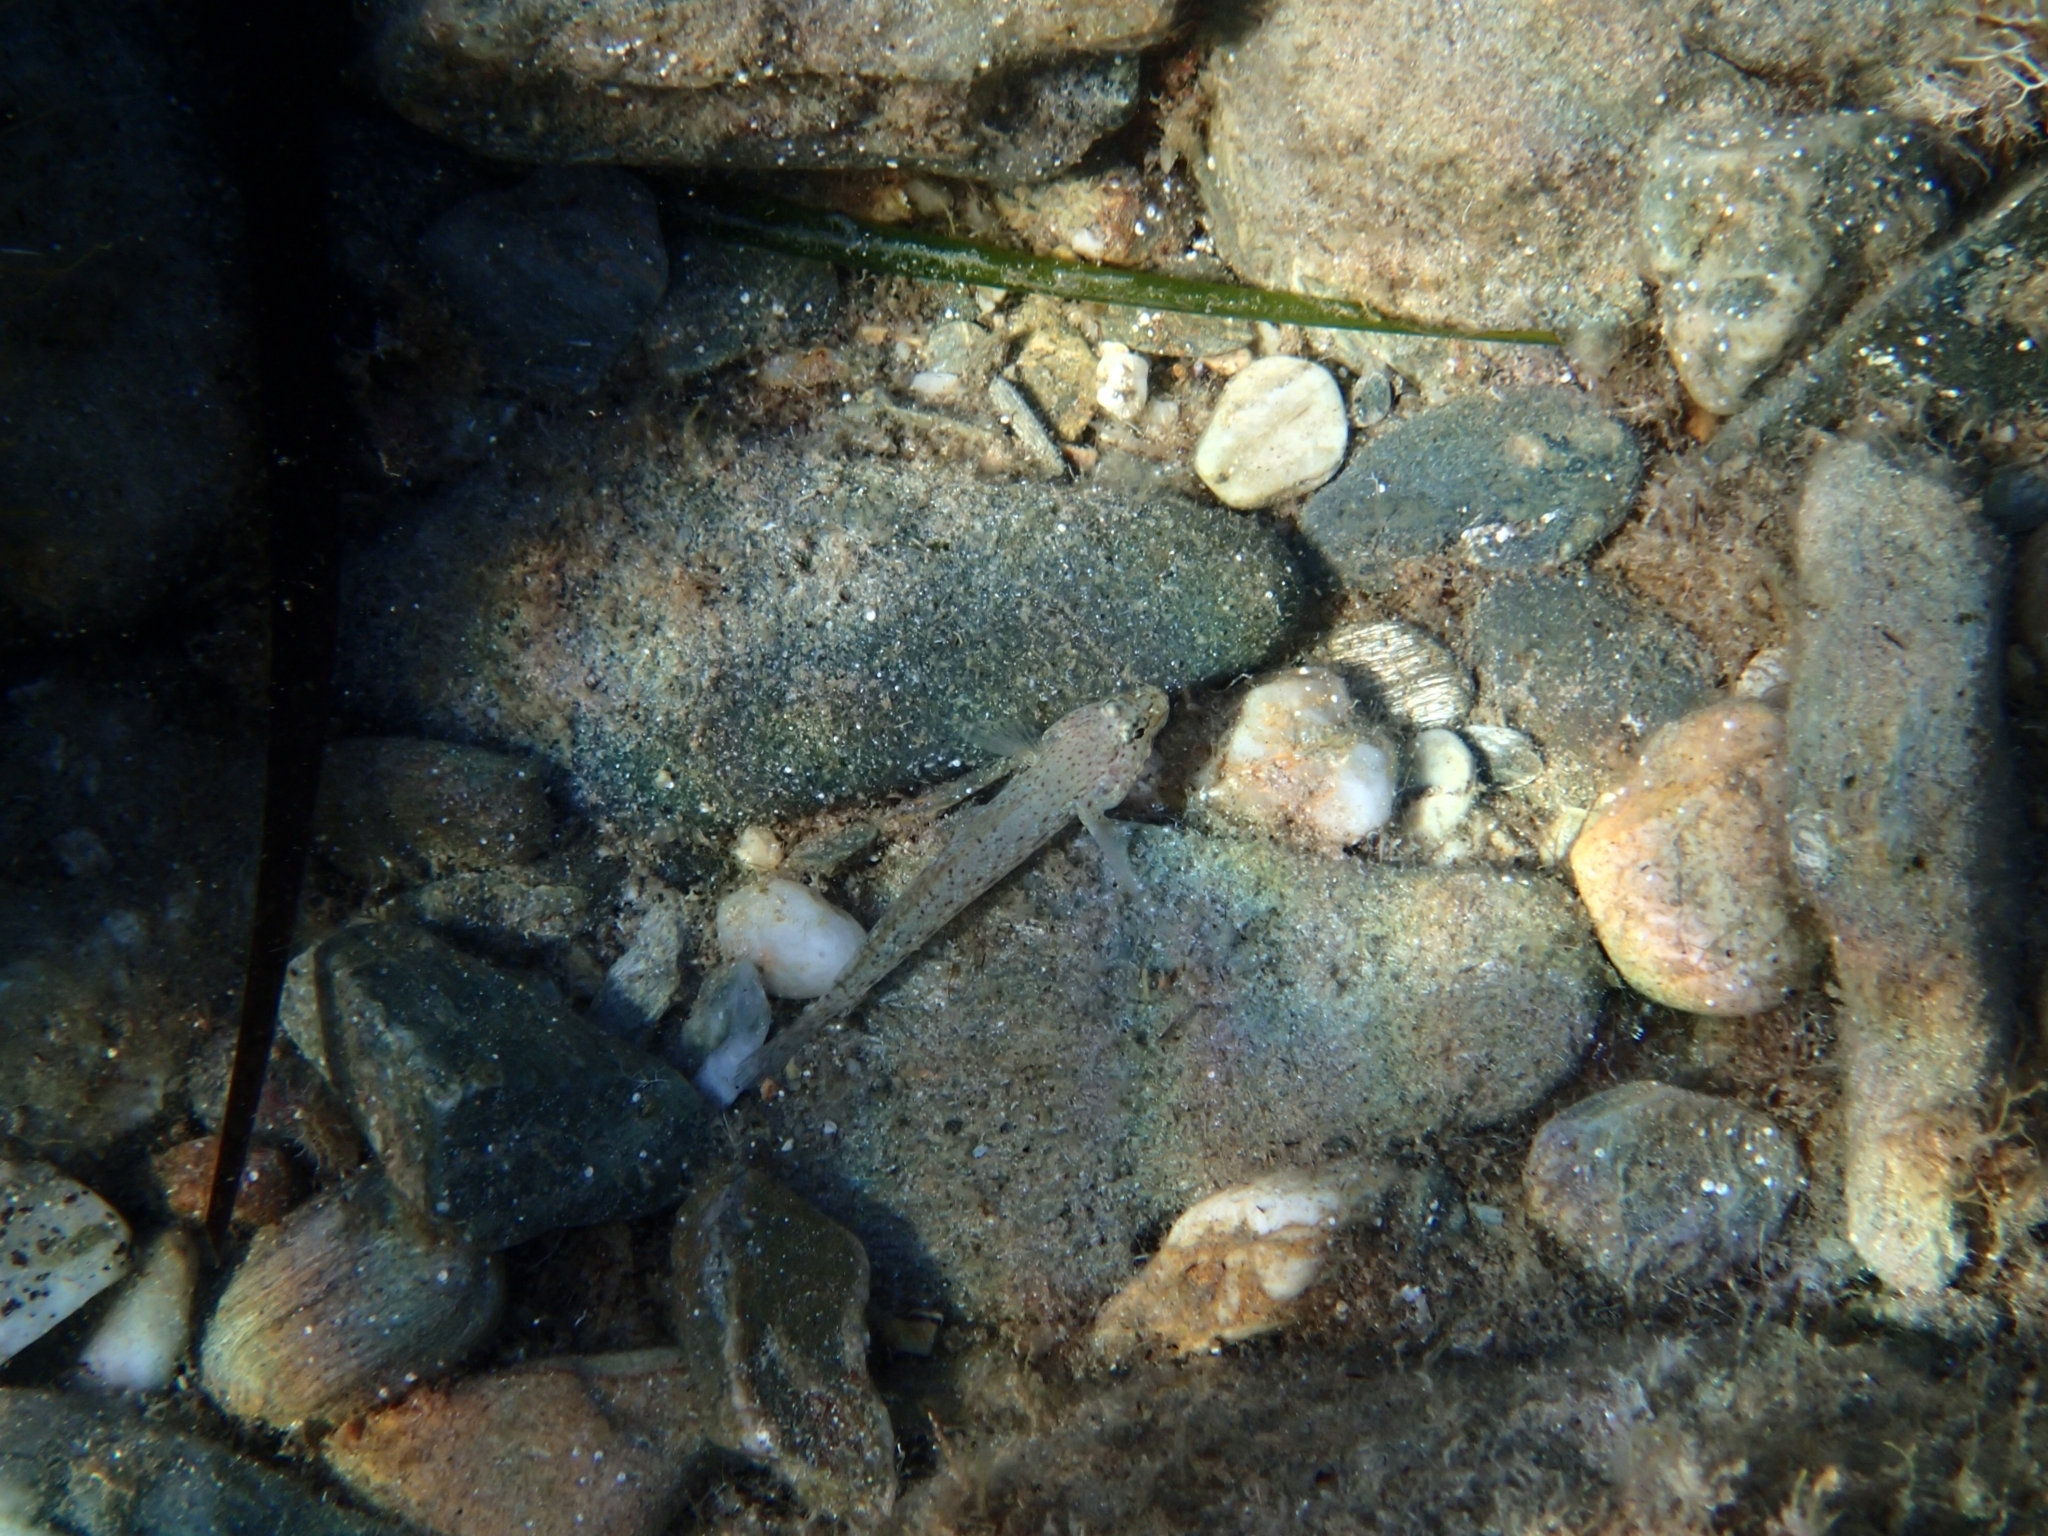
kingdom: Animalia
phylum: Chordata
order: Perciformes
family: Gobiidae
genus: Gobius
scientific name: Gobius incognitus
